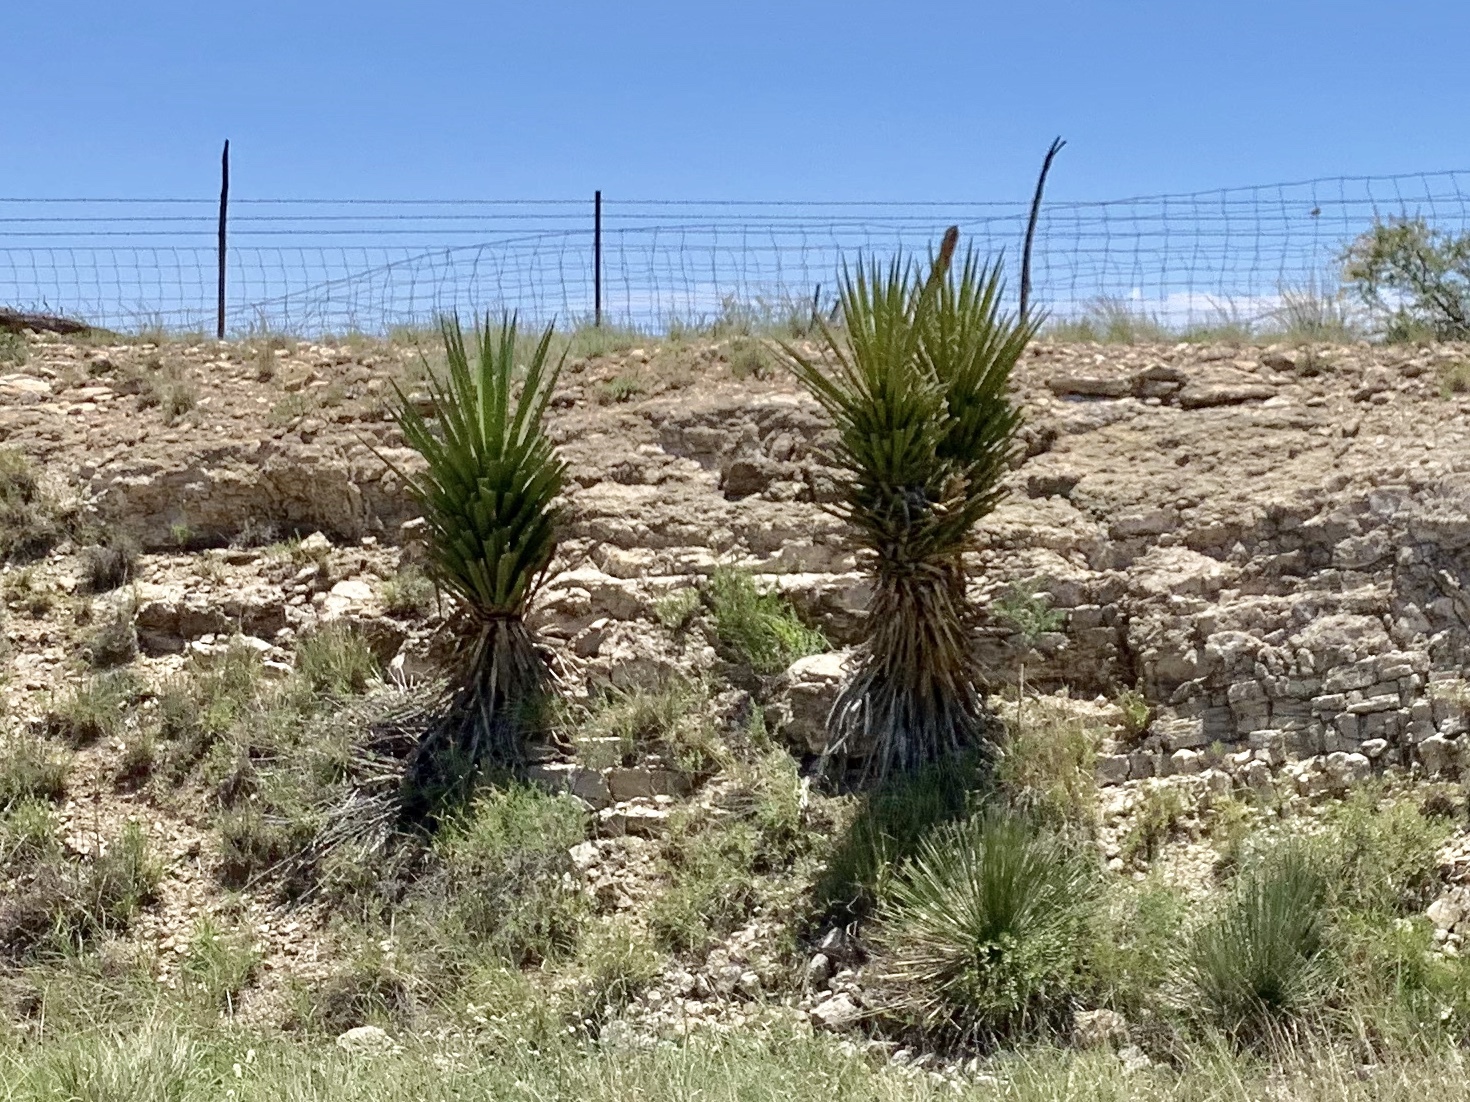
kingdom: Plantae
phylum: Tracheophyta
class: Liliopsida
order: Asparagales
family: Asparagaceae
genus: Yucca
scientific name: Yucca treculiana
